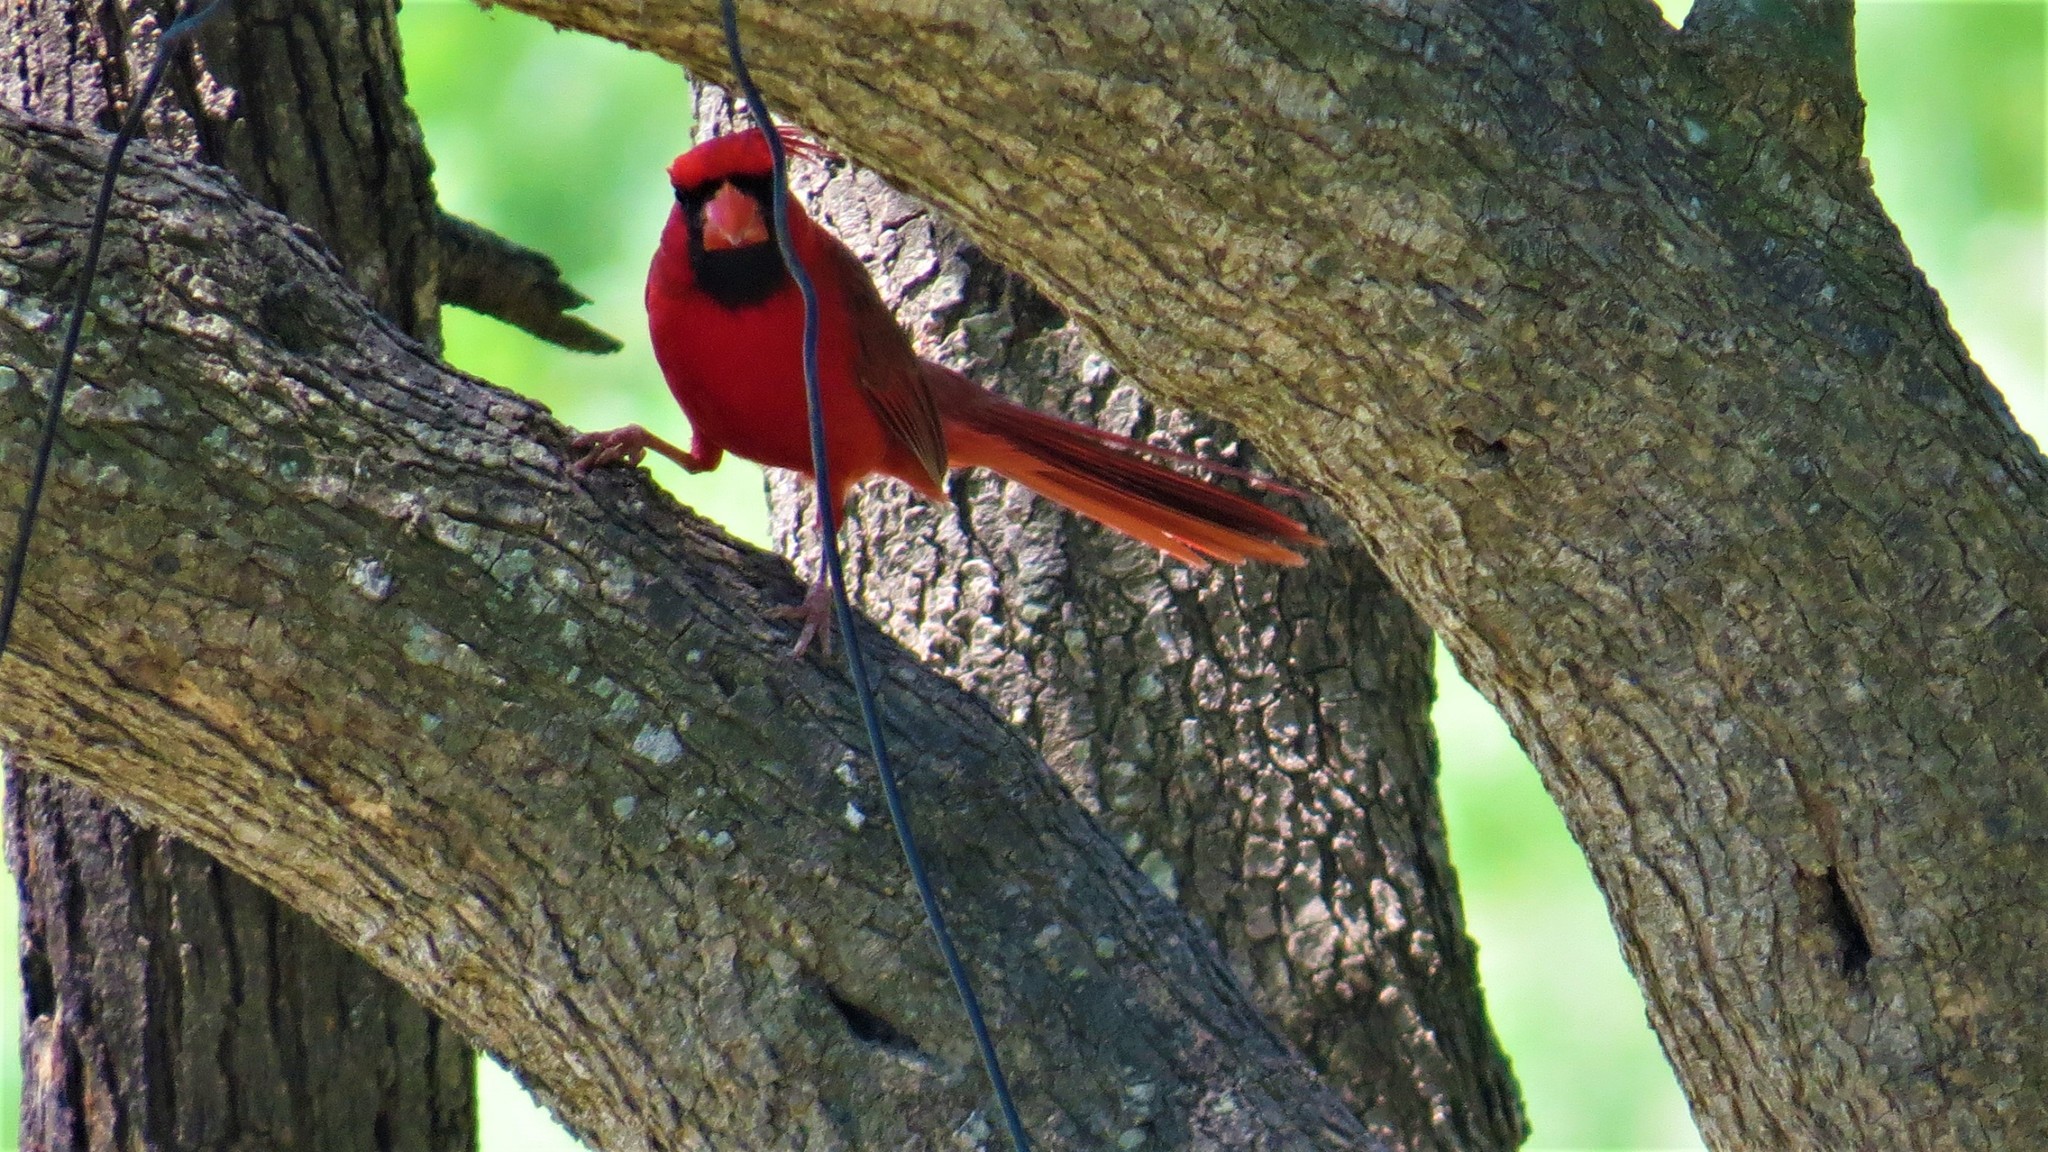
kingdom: Animalia
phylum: Chordata
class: Aves
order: Passeriformes
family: Cardinalidae
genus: Cardinalis
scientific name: Cardinalis cardinalis
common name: Northern cardinal
